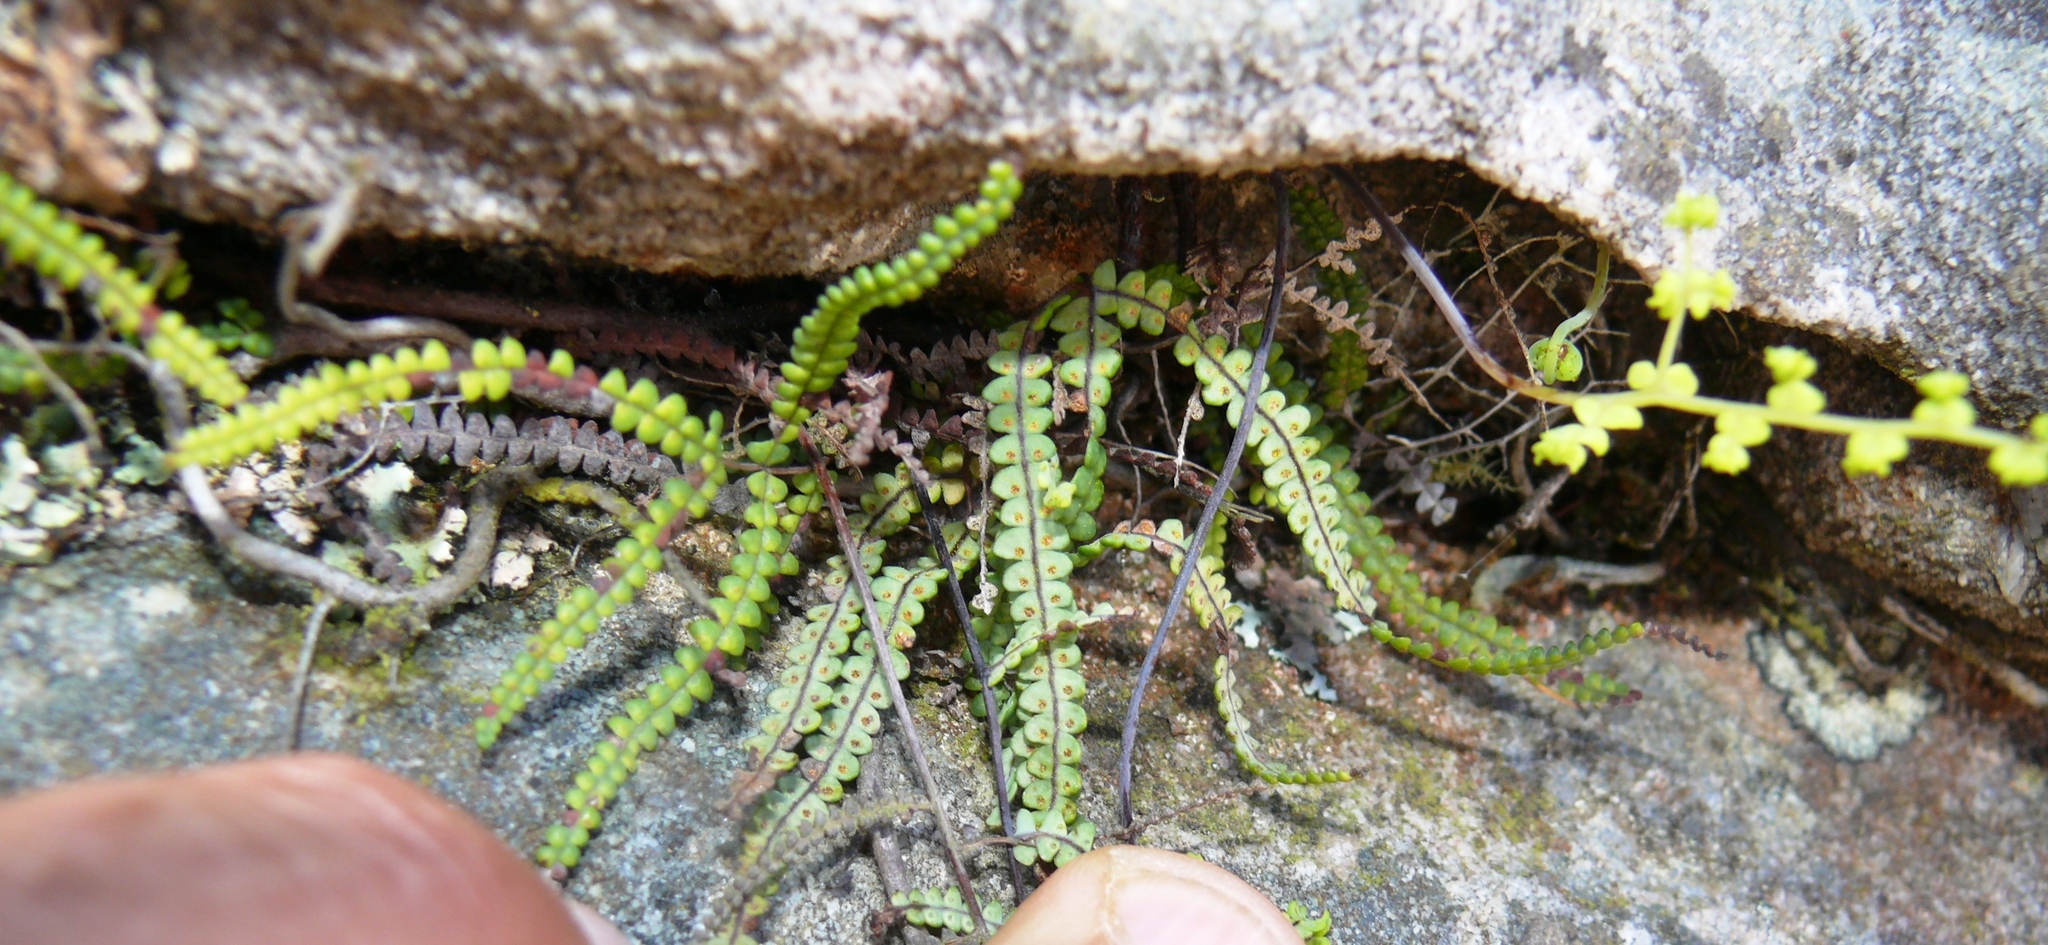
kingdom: Plantae
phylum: Tracheophyta
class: Polypodiopsida
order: Gleicheniales
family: Gleicheniaceae
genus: Gleichenia
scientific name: Gleichenia polypodioides
